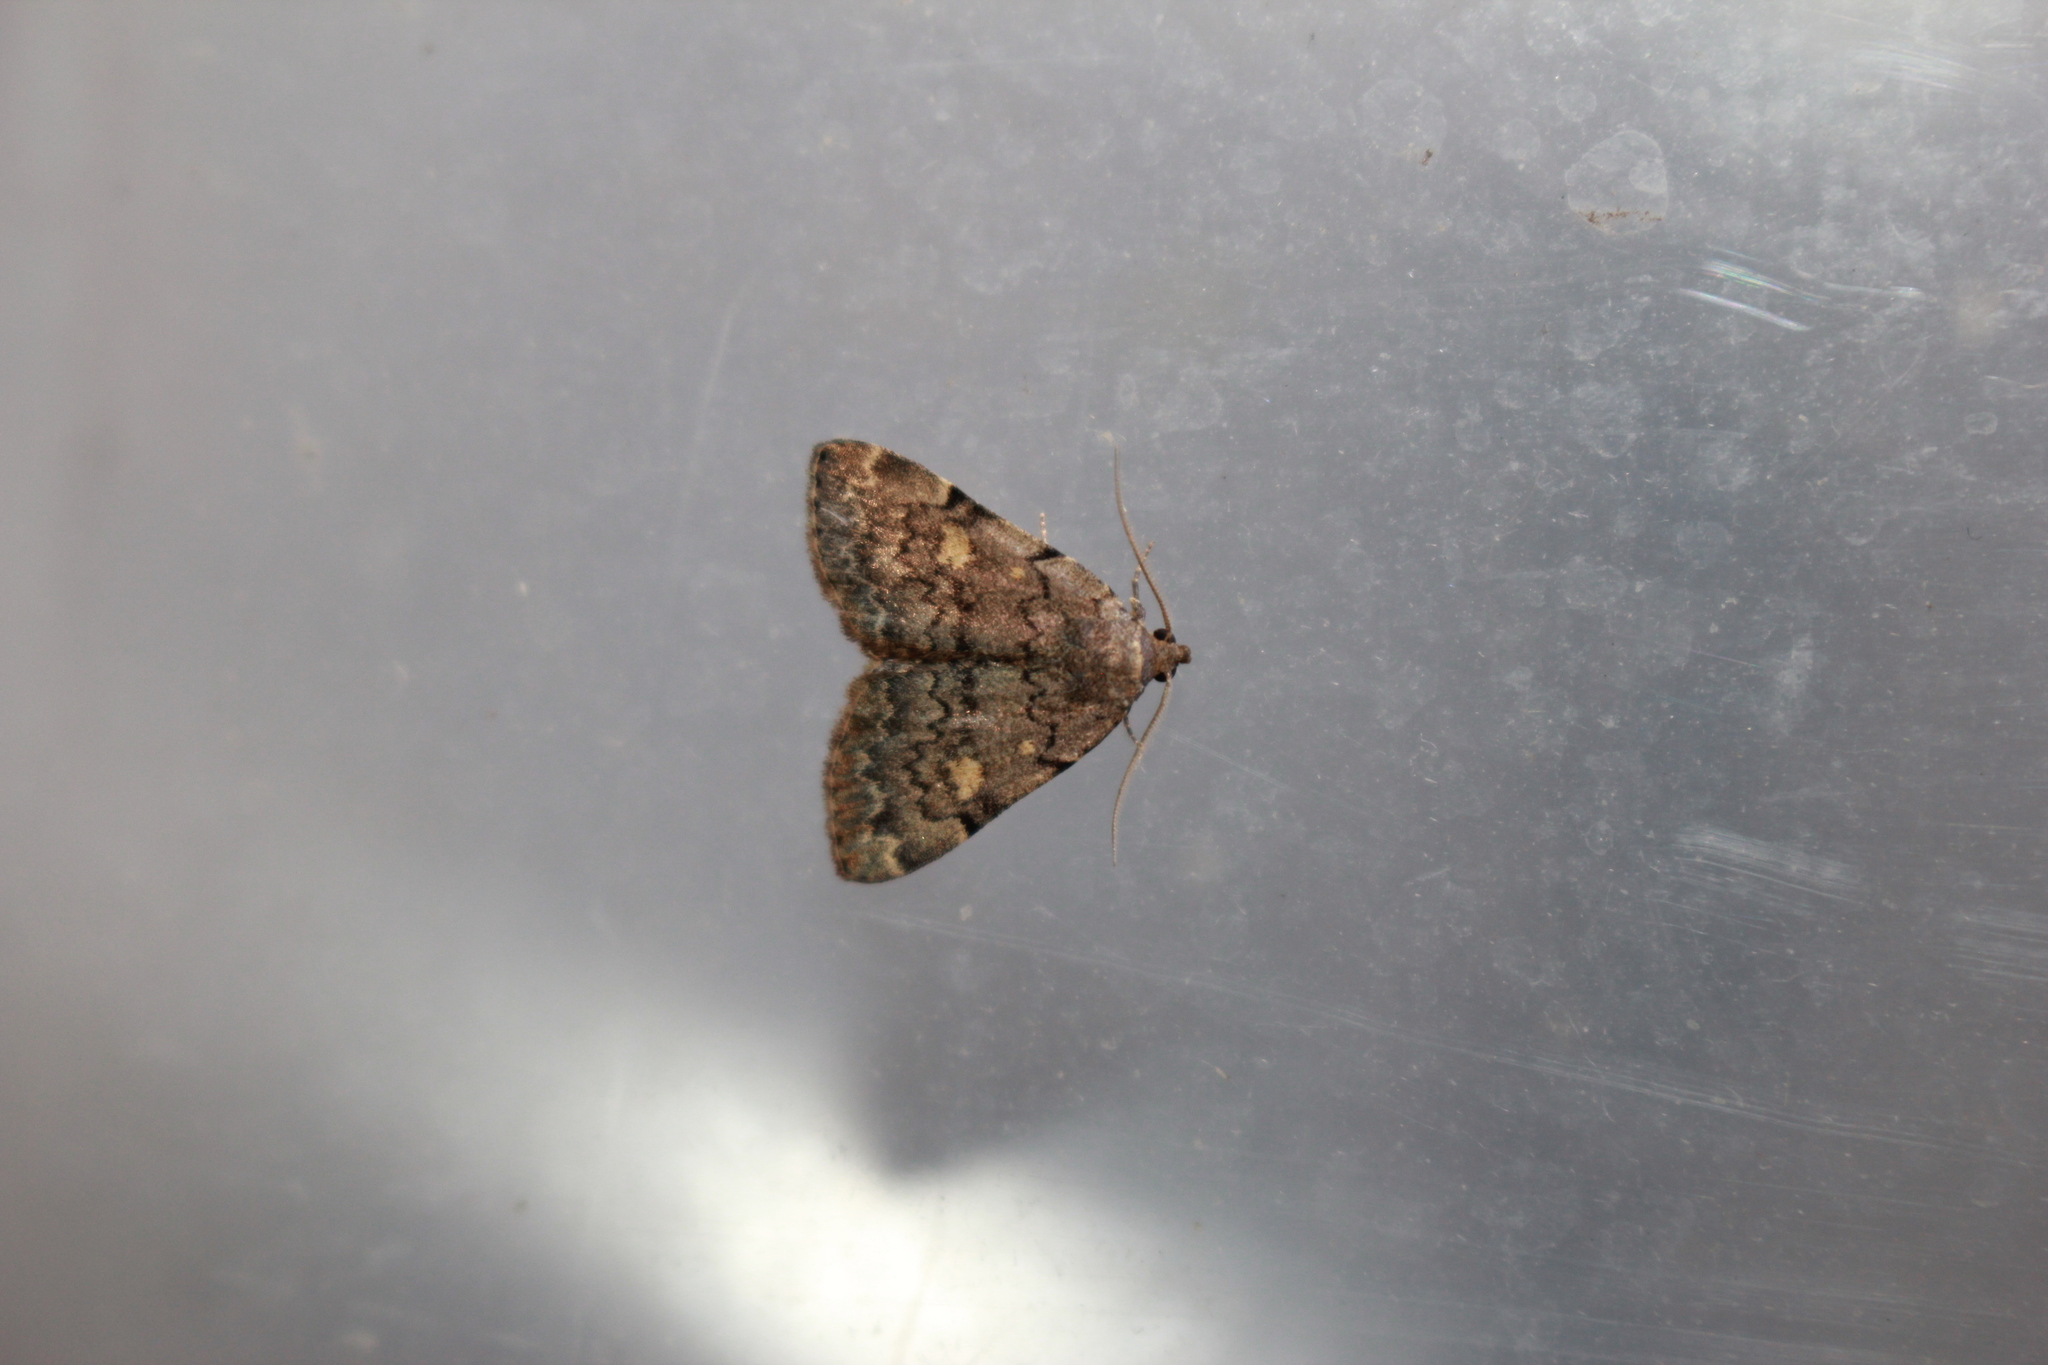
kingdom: Animalia
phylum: Arthropoda
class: Insecta
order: Lepidoptera
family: Erebidae
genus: Idia
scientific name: Idia aemula
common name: Common idia moth
